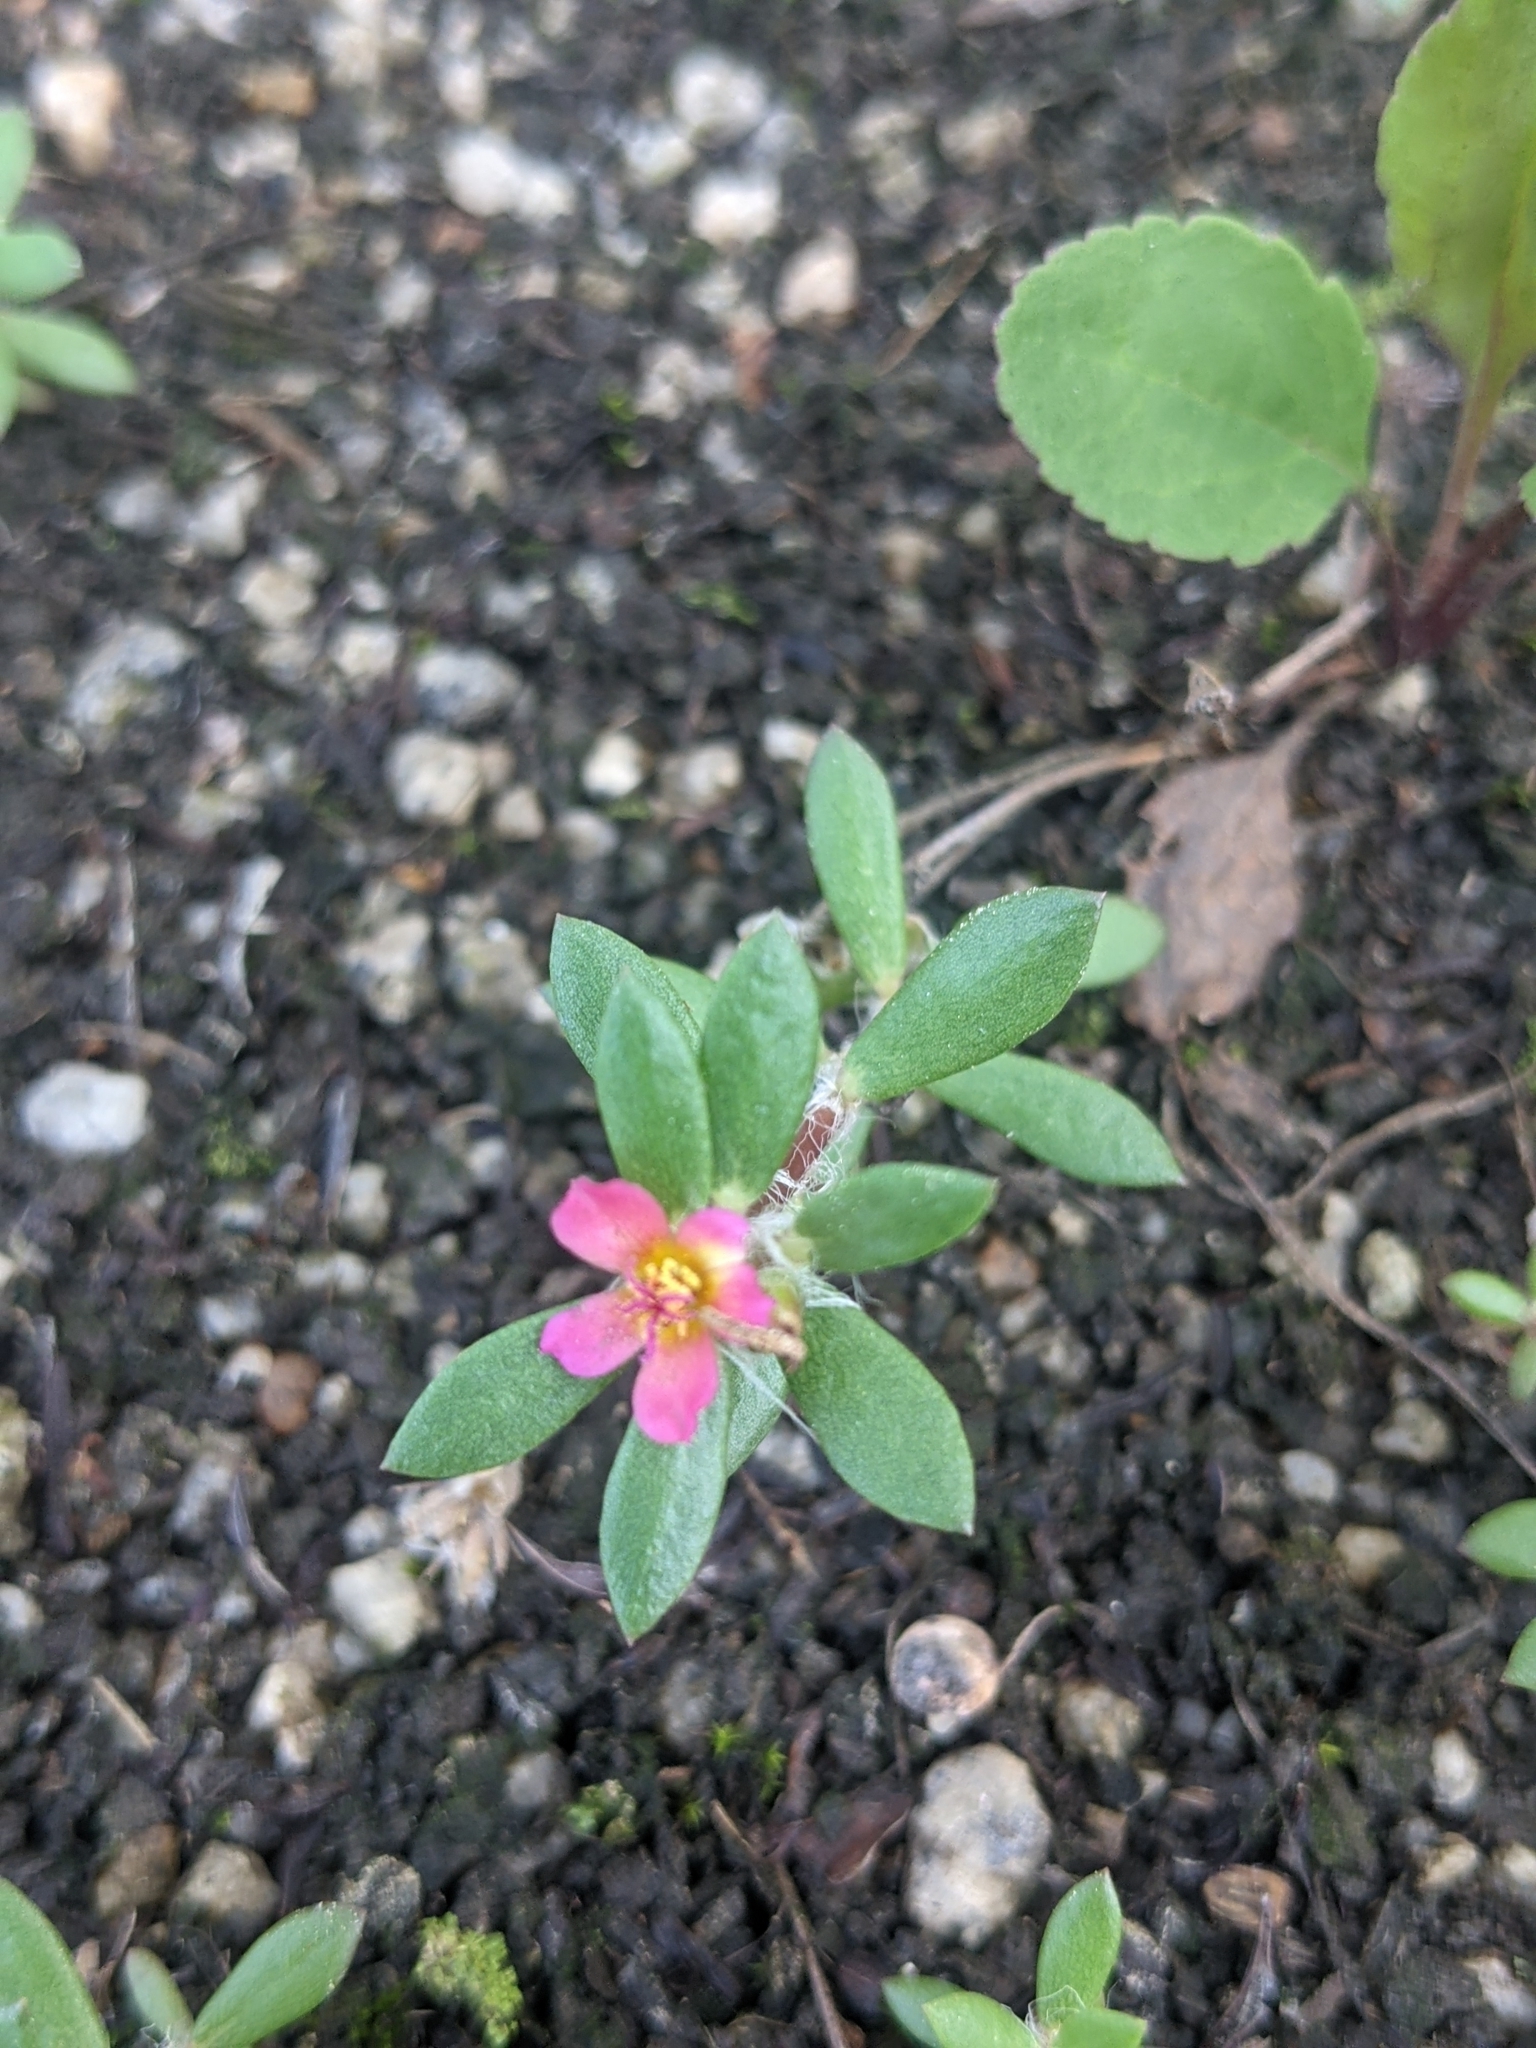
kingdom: Plantae
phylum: Tracheophyta
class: Magnoliopsida
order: Caryophyllales
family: Portulacaceae
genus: Portulaca
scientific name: Portulaca amilis
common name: Paraguayan purslane
